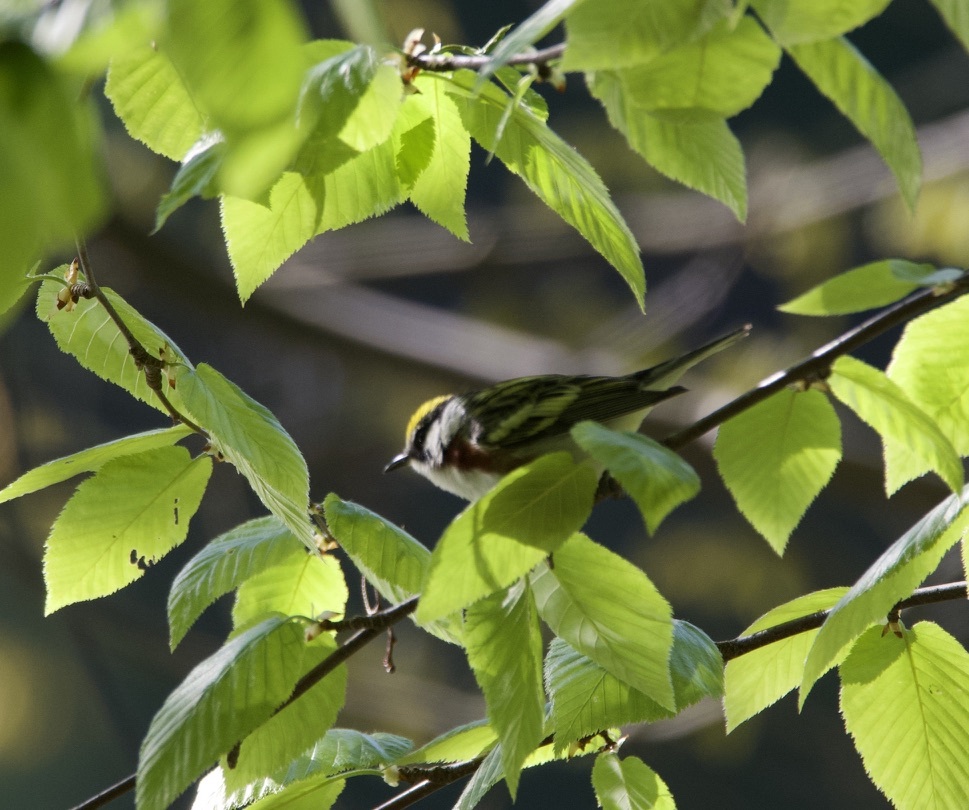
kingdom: Animalia
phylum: Chordata
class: Aves
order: Passeriformes
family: Parulidae
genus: Setophaga
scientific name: Setophaga pensylvanica
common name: Chestnut-sided warbler
